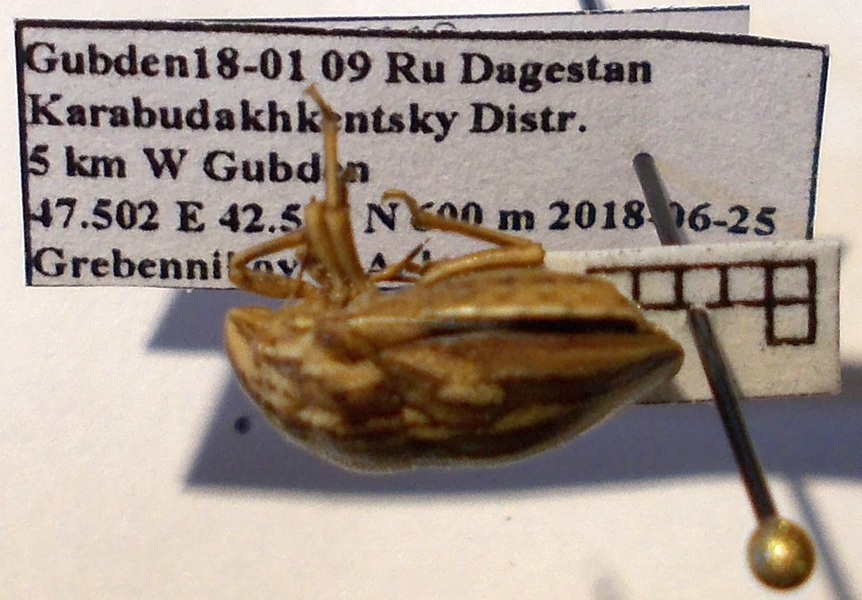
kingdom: Animalia
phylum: Arthropoda
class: Insecta
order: Hemiptera
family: Scutelleridae
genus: Odontotarsus
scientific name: Odontotarsus purpureolineatus
